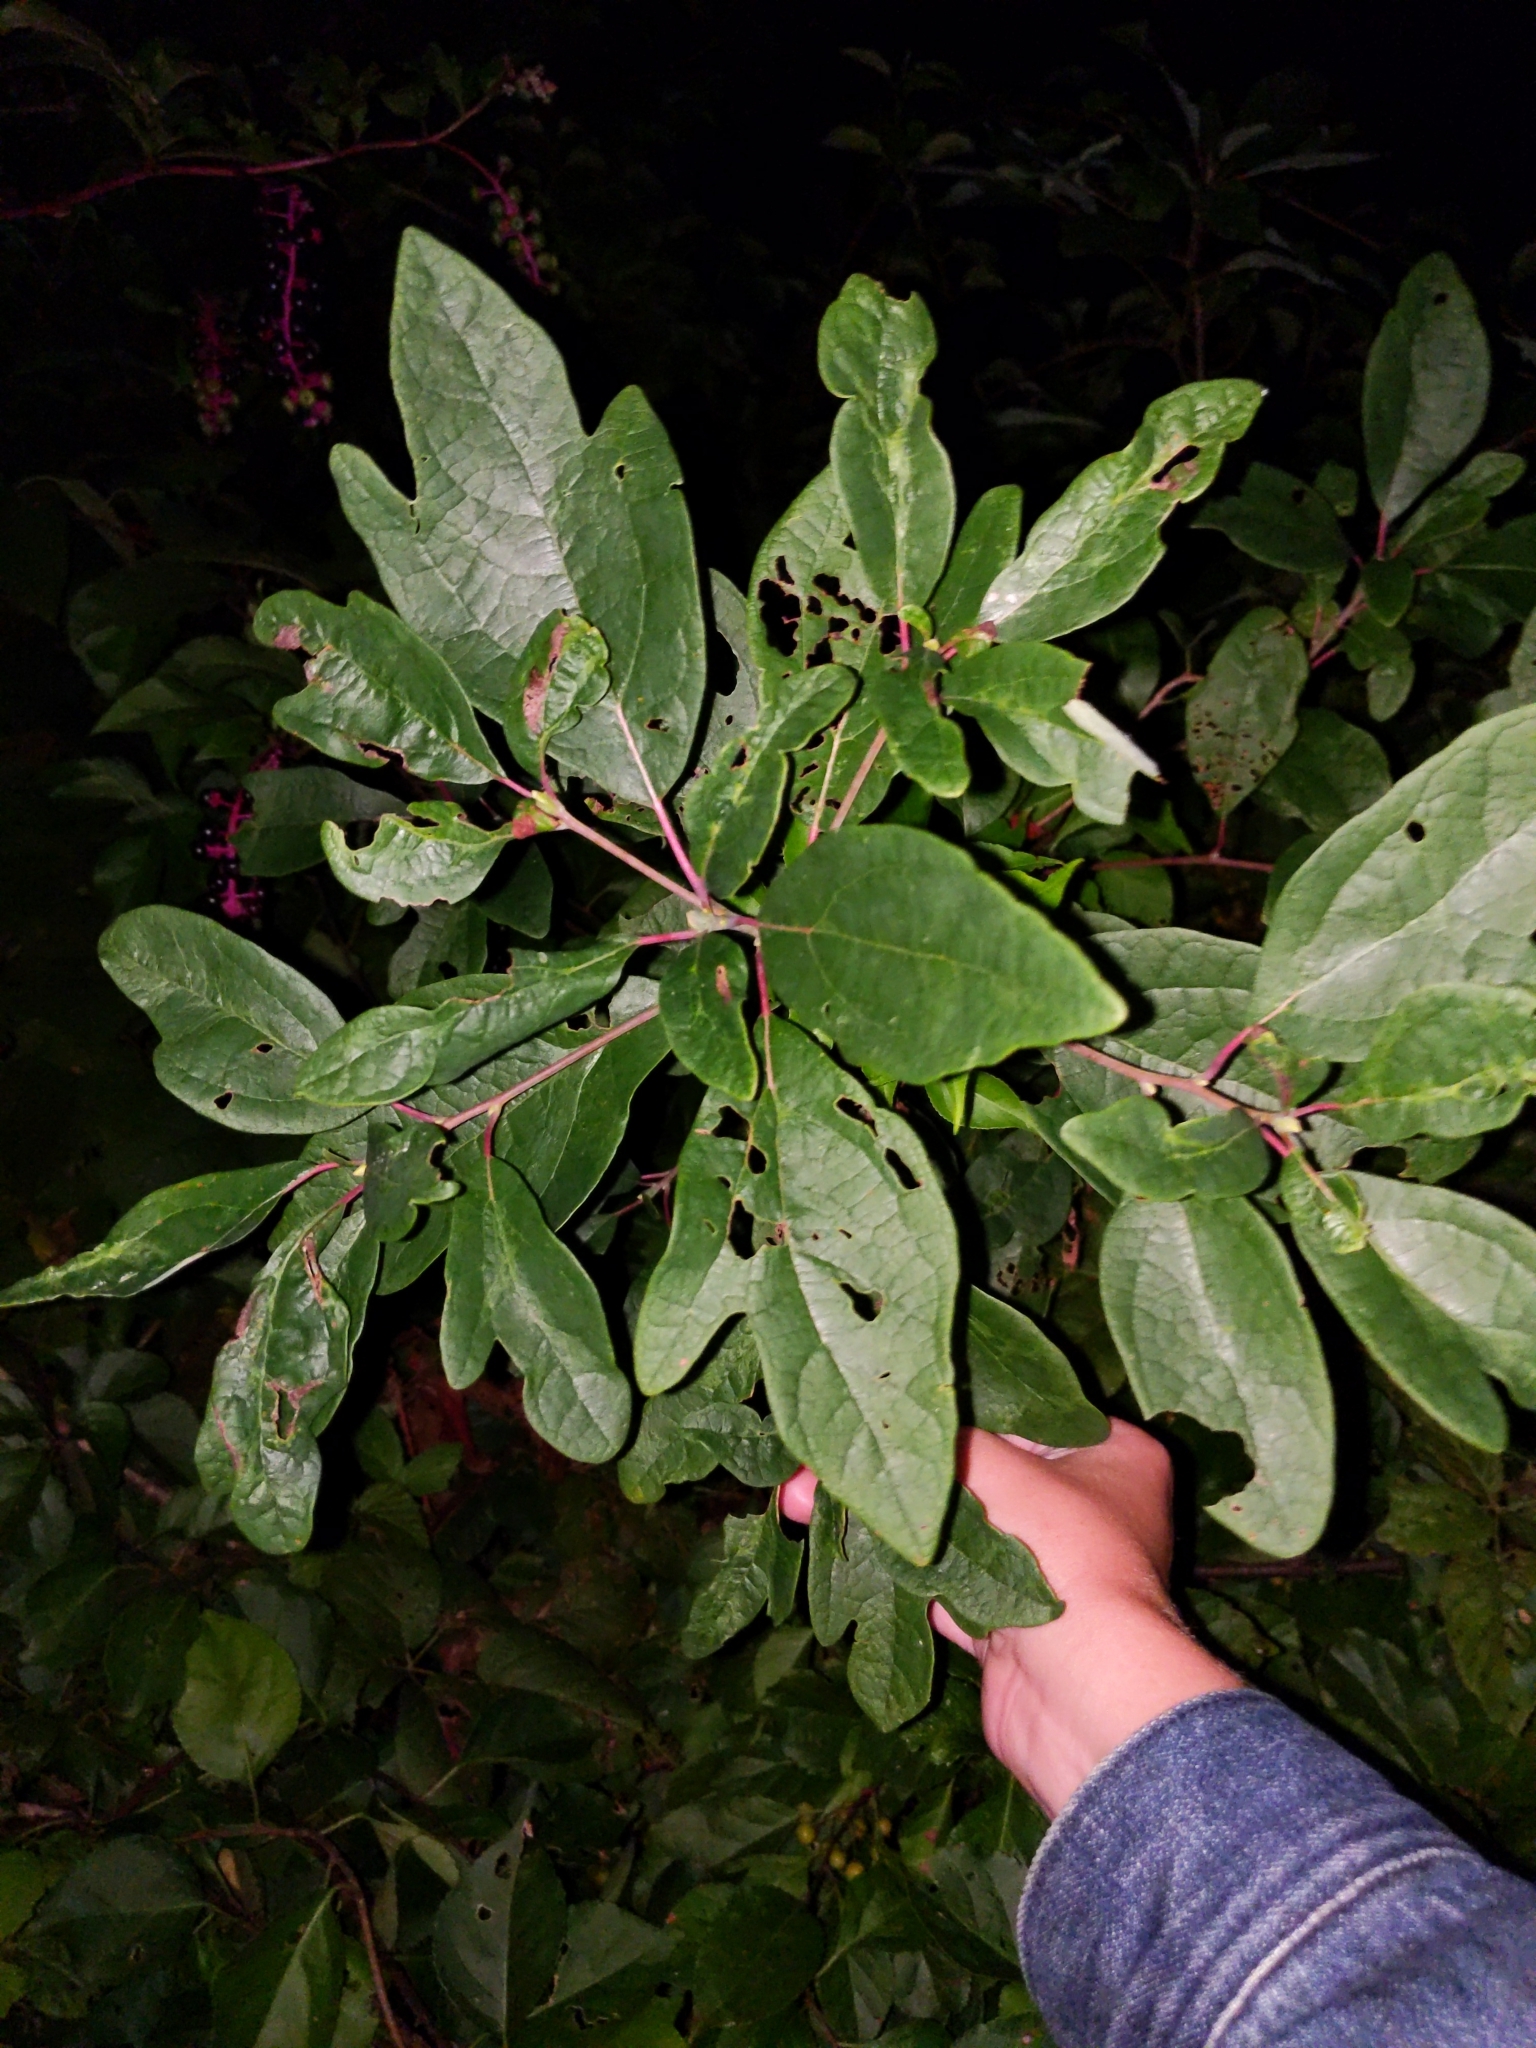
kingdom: Plantae
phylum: Tracheophyta
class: Magnoliopsida
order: Laurales
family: Lauraceae
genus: Sassafras
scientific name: Sassafras albidum
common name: Sassafras
